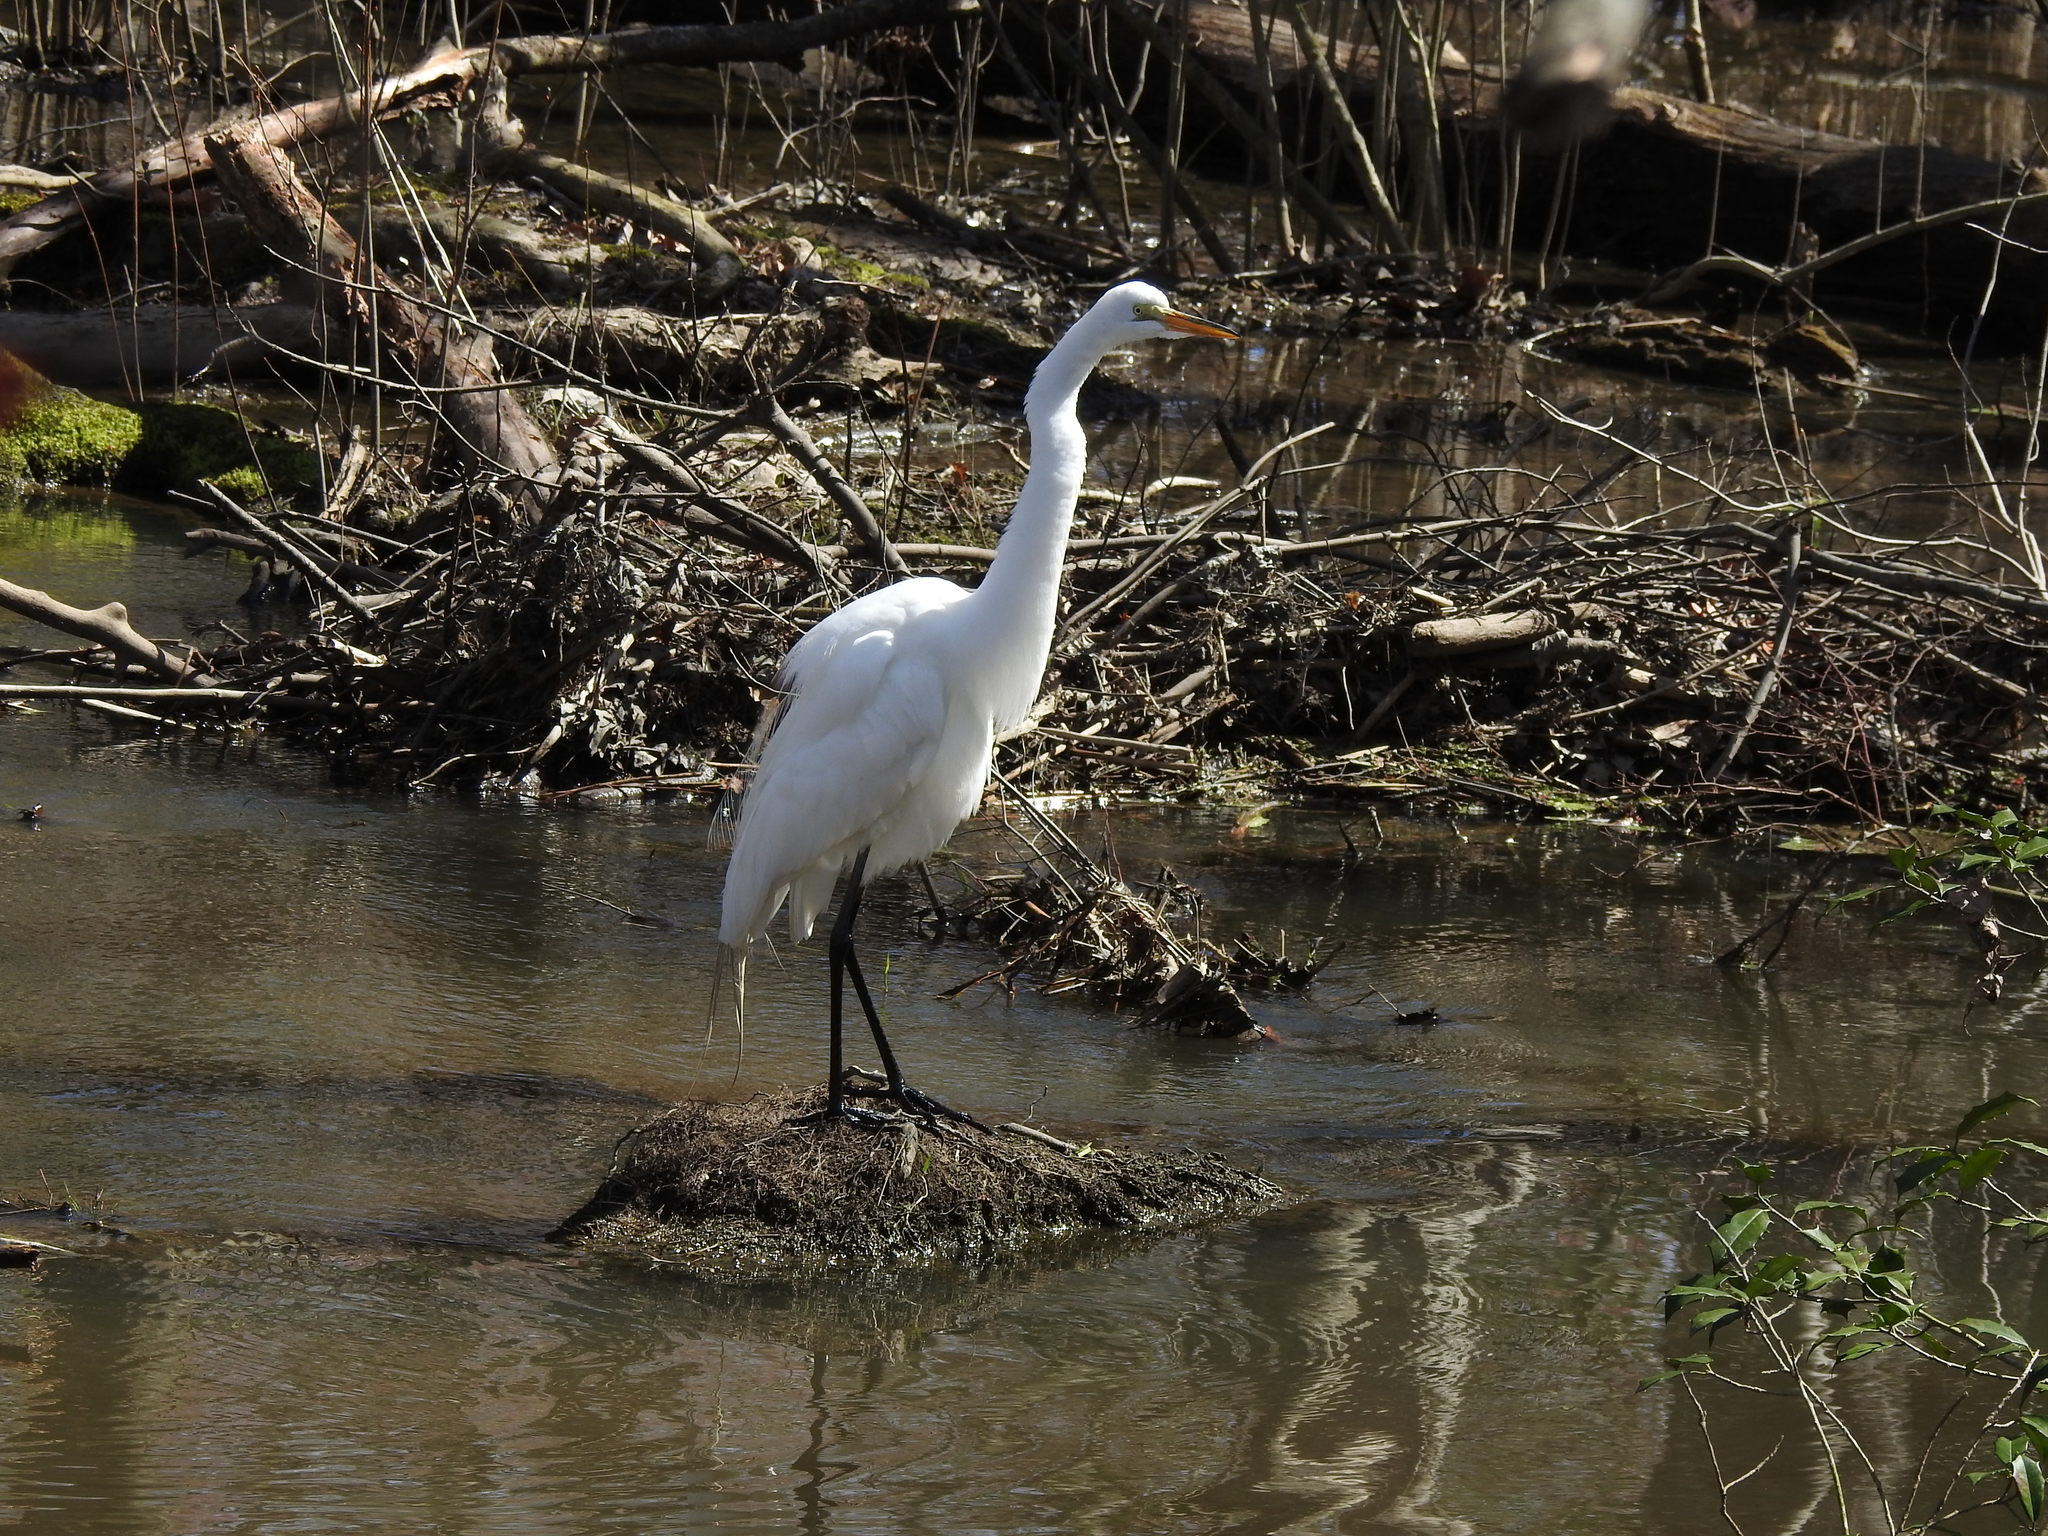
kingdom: Animalia
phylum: Chordata
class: Aves
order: Pelecaniformes
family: Ardeidae
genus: Ardea
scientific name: Ardea alba
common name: Great egret
